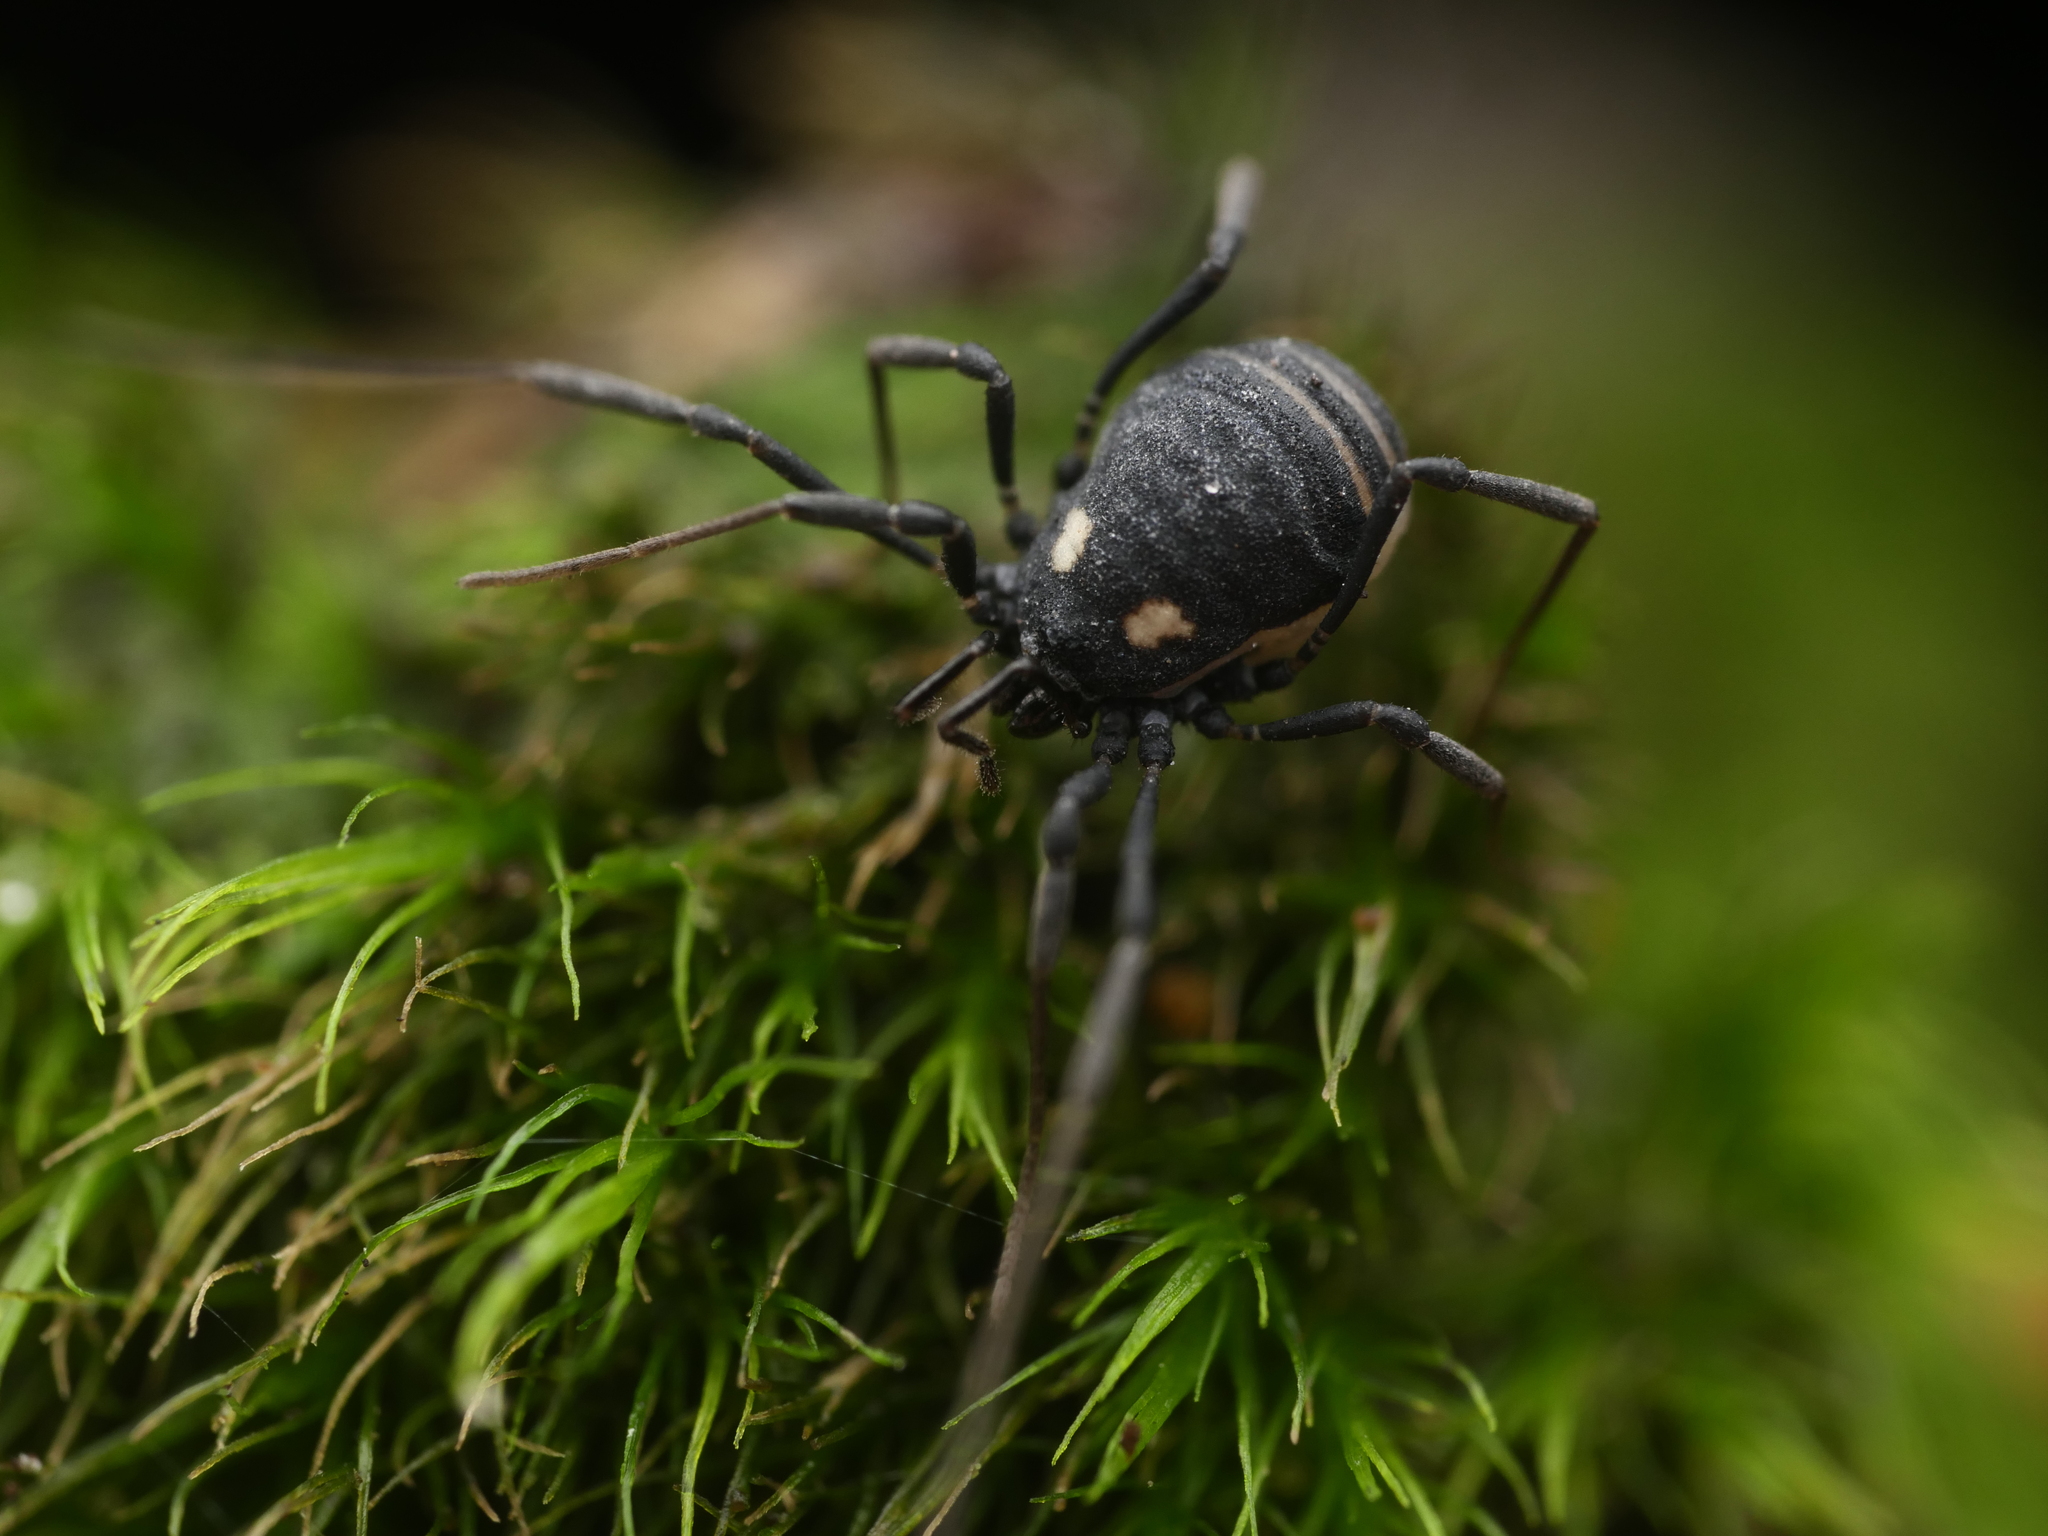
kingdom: Animalia
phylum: Arthropoda
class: Arachnida
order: Opiliones
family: Nemastomatidae
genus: Nemastoma
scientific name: Nemastoma lugubre
